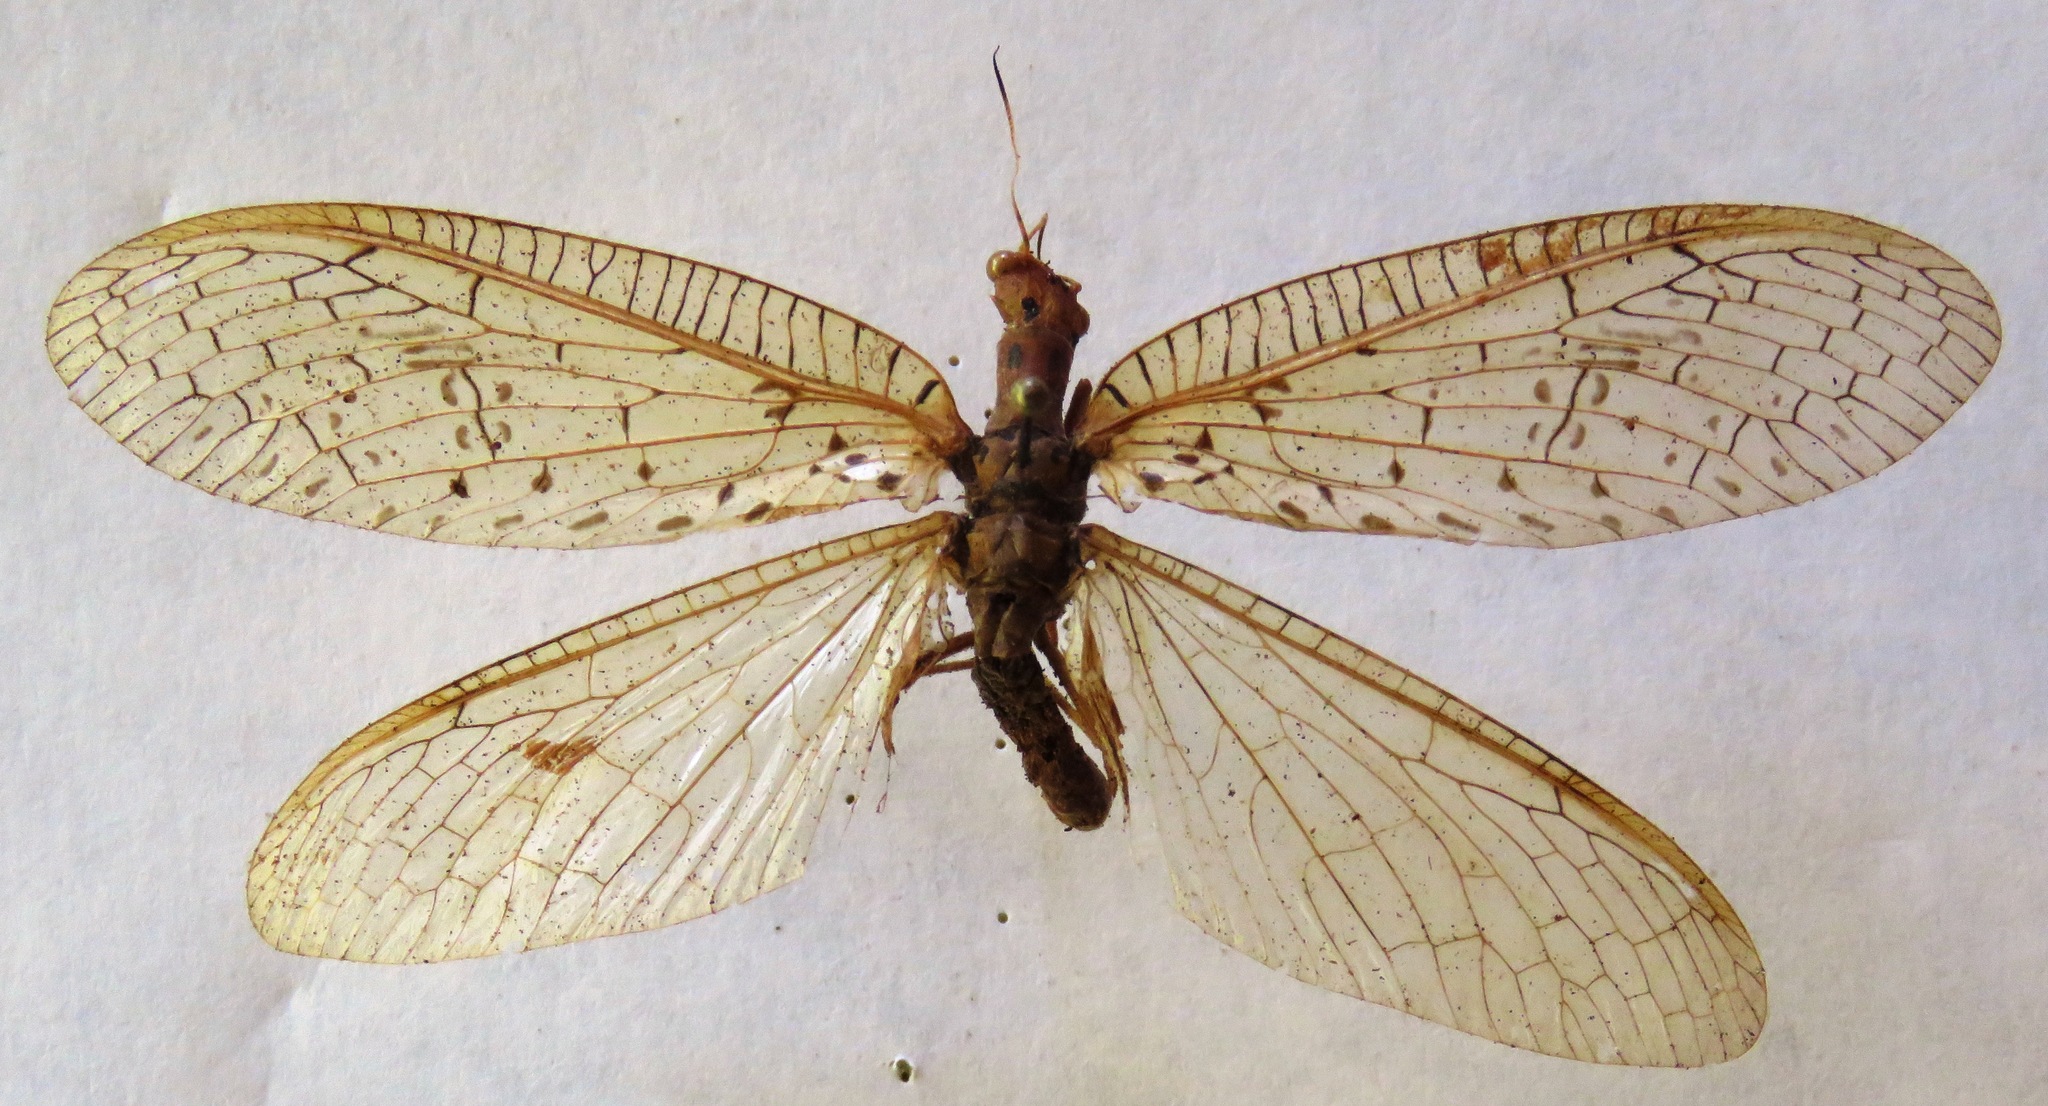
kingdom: Animalia
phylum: Arthropoda
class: Insecta
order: Megaloptera
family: Corydalidae
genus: Chloronia
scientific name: Chloronia mirifica
